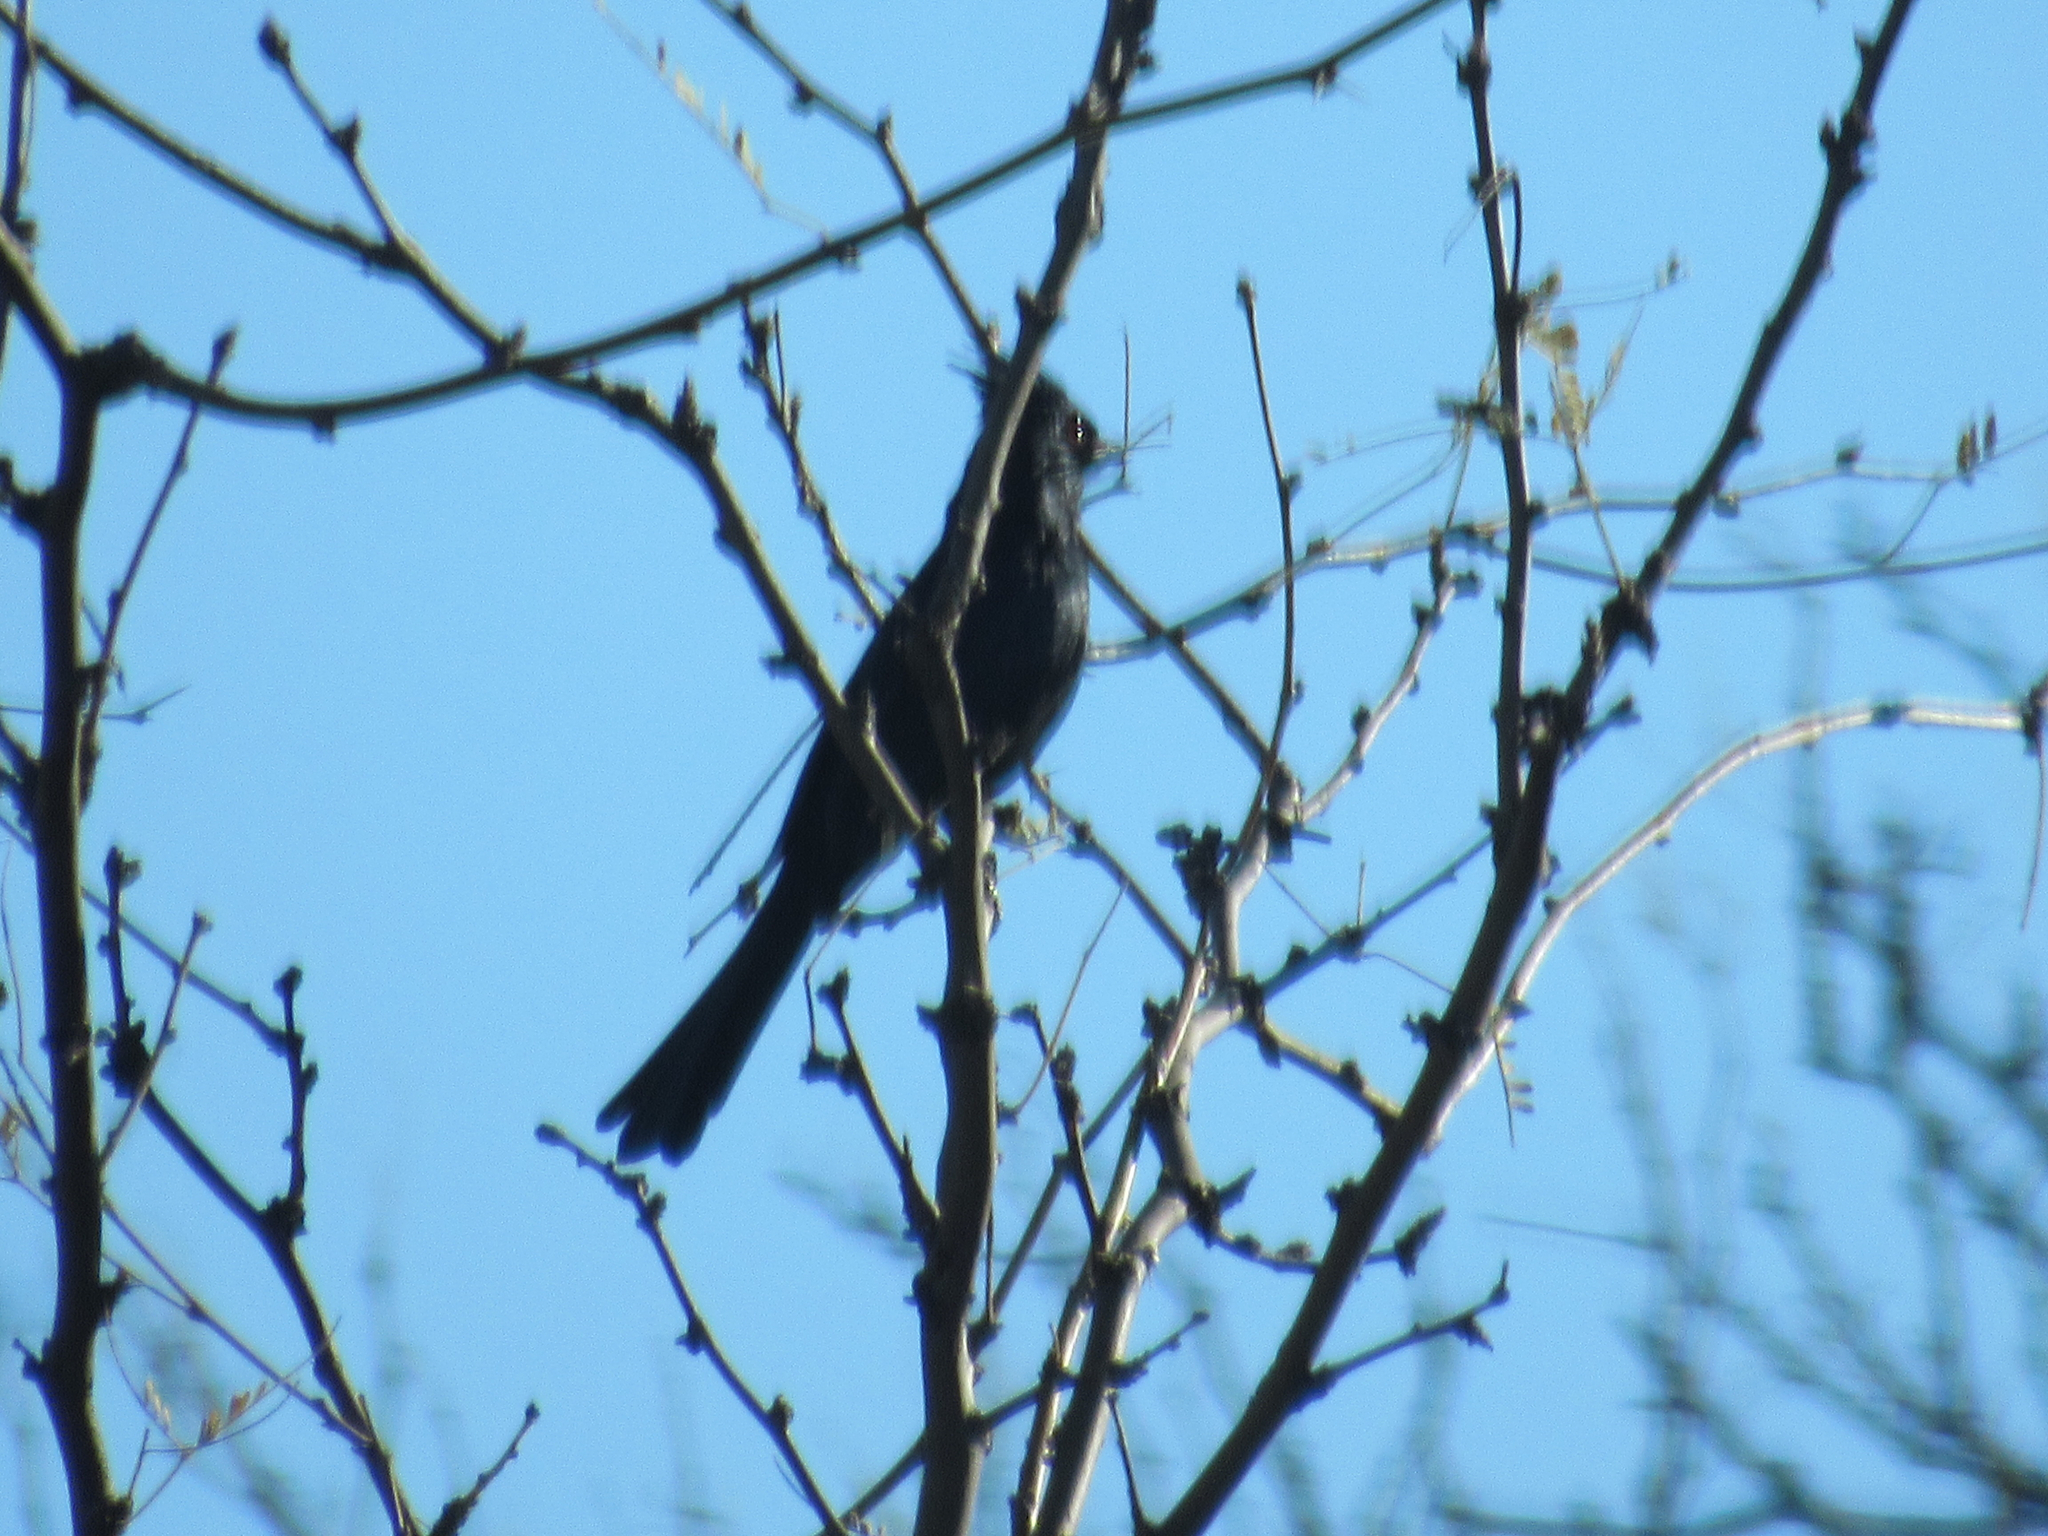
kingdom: Animalia
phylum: Chordata
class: Aves
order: Passeriformes
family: Ptilogonatidae
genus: Phainopepla
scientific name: Phainopepla nitens
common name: Phainopepla
